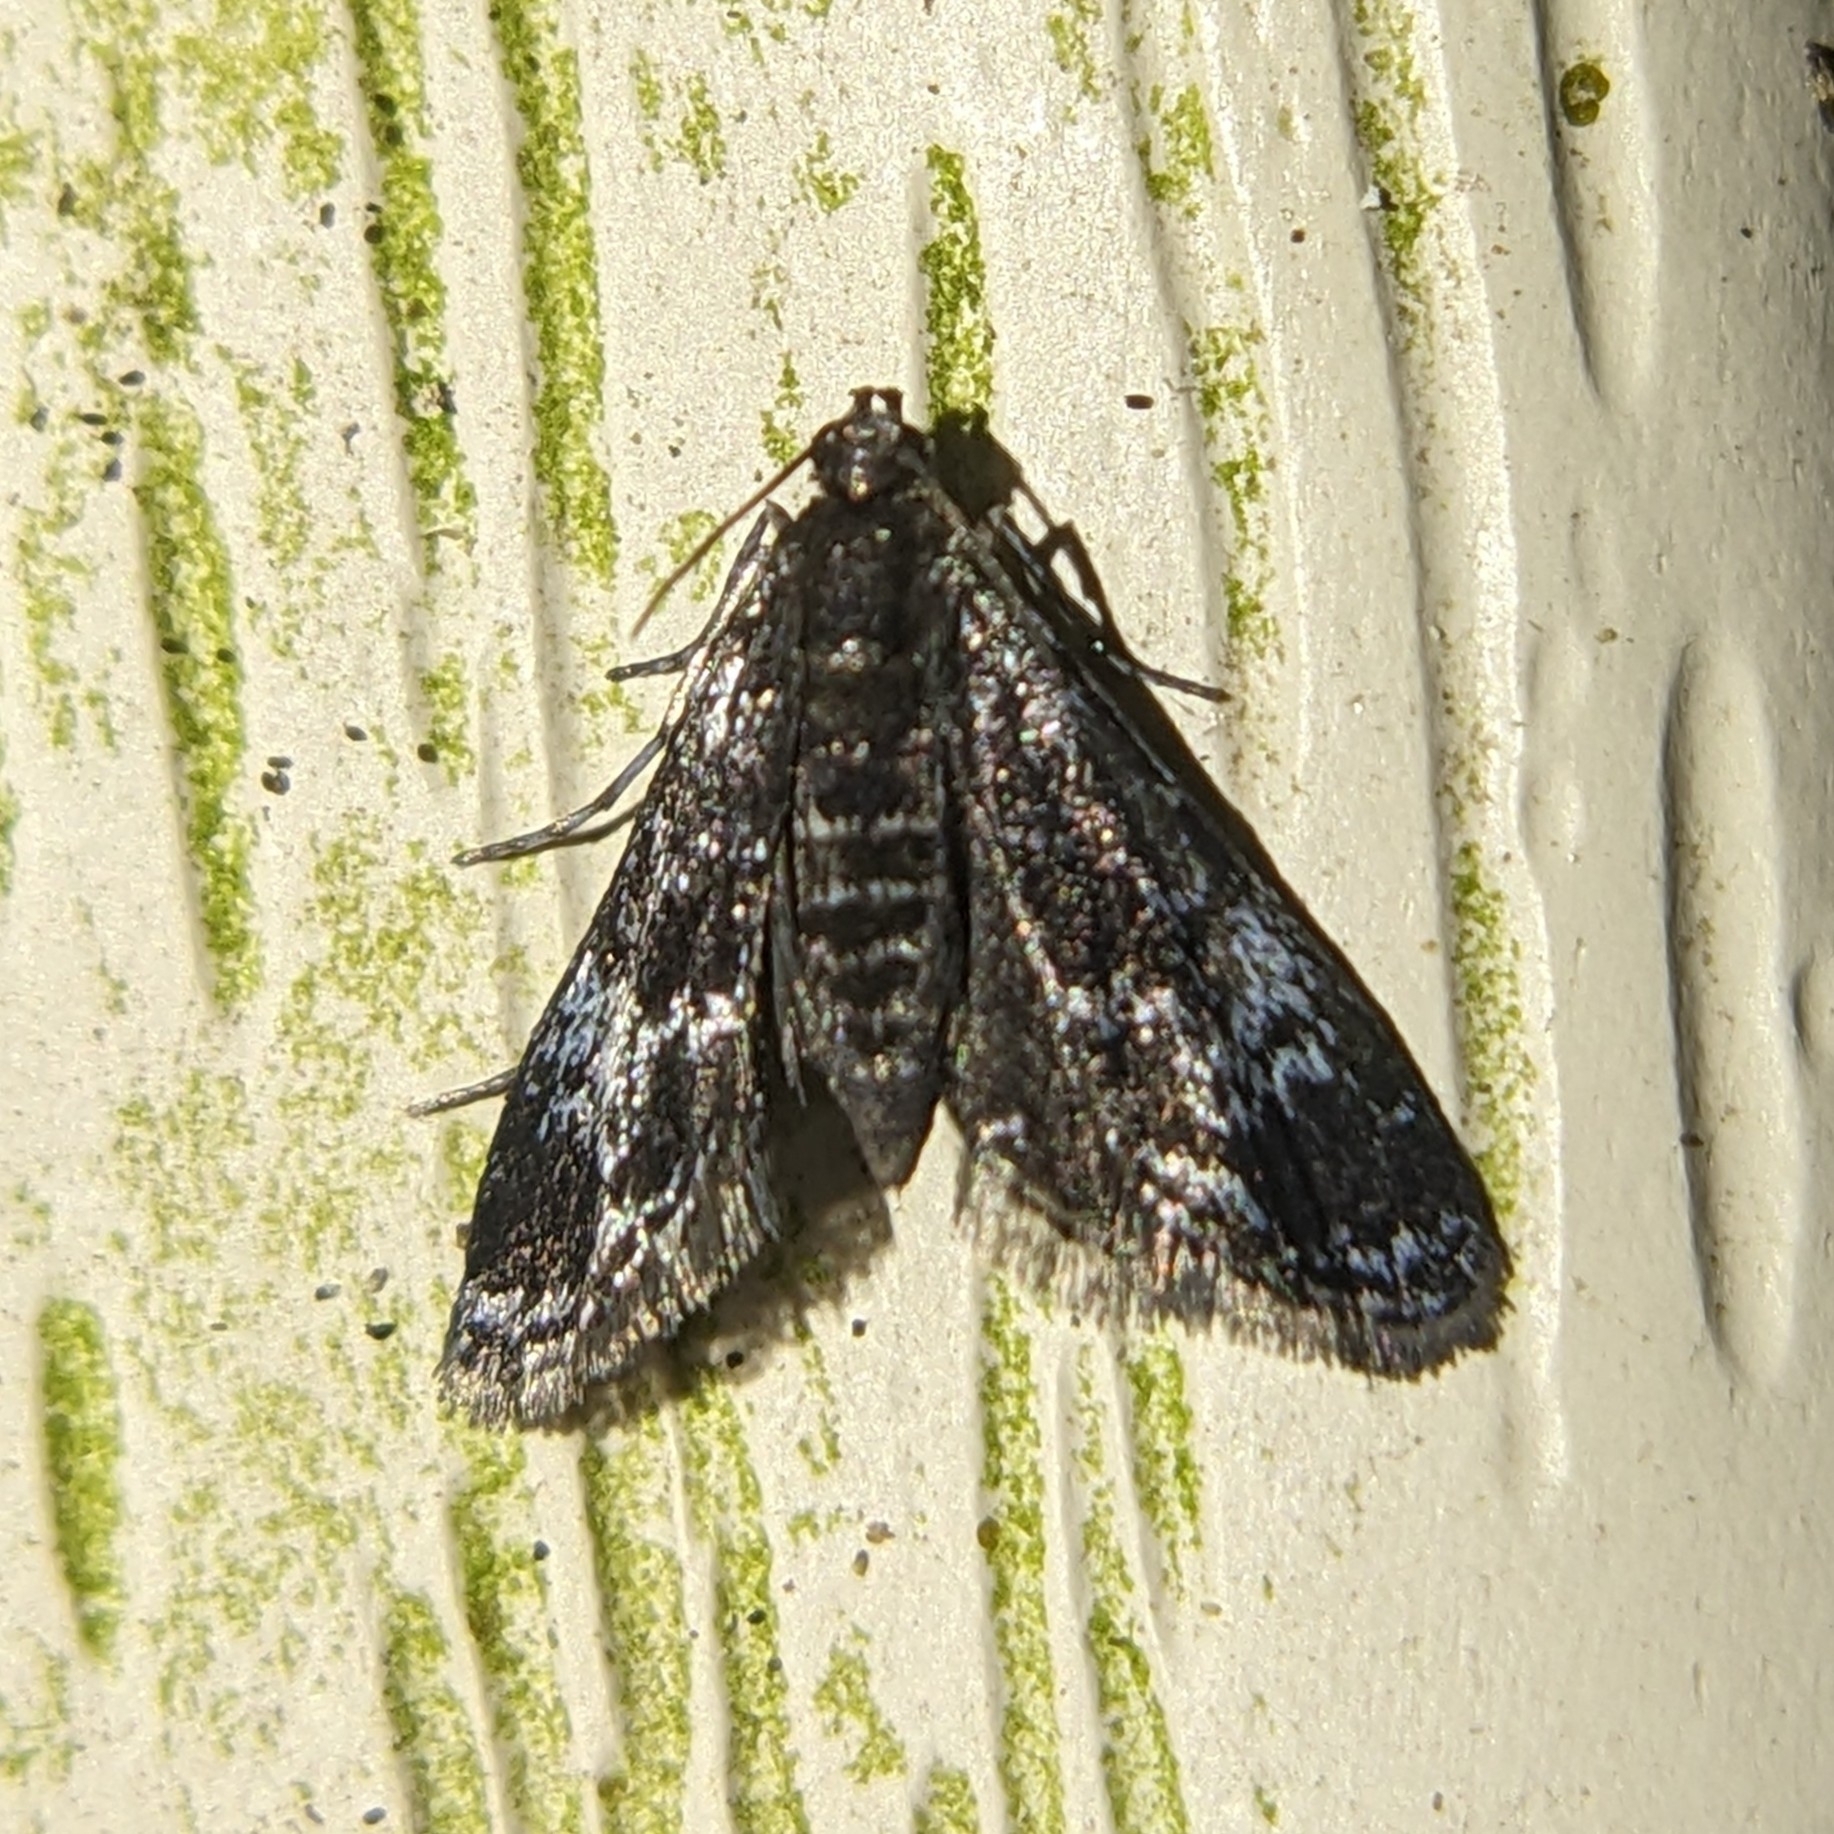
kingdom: Animalia
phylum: Arthropoda
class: Insecta
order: Lepidoptera
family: Crambidae
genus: Elophila
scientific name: Elophila tinealis
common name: Black duckweed moth
